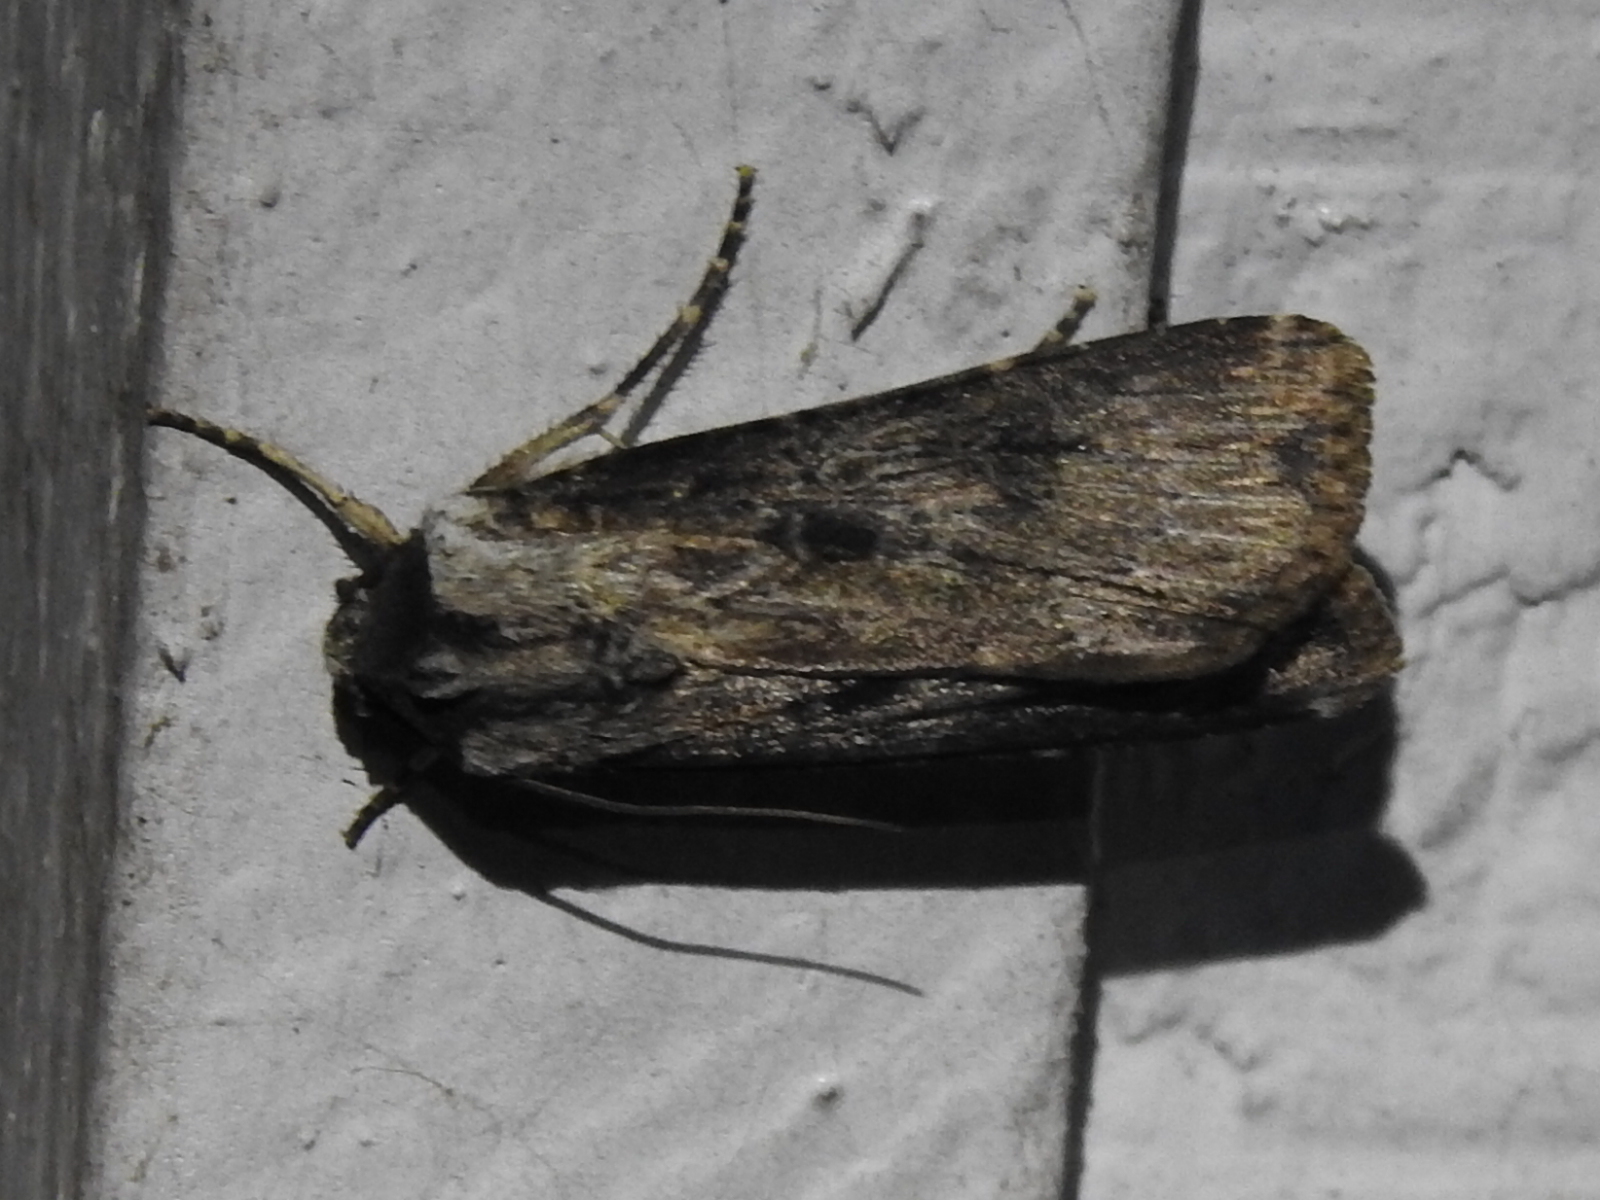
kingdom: Animalia
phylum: Arthropoda
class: Insecta
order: Lepidoptera
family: Noctuidae
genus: Agrotis
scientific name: Agrotis ipsilon
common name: Dark sword-grass
